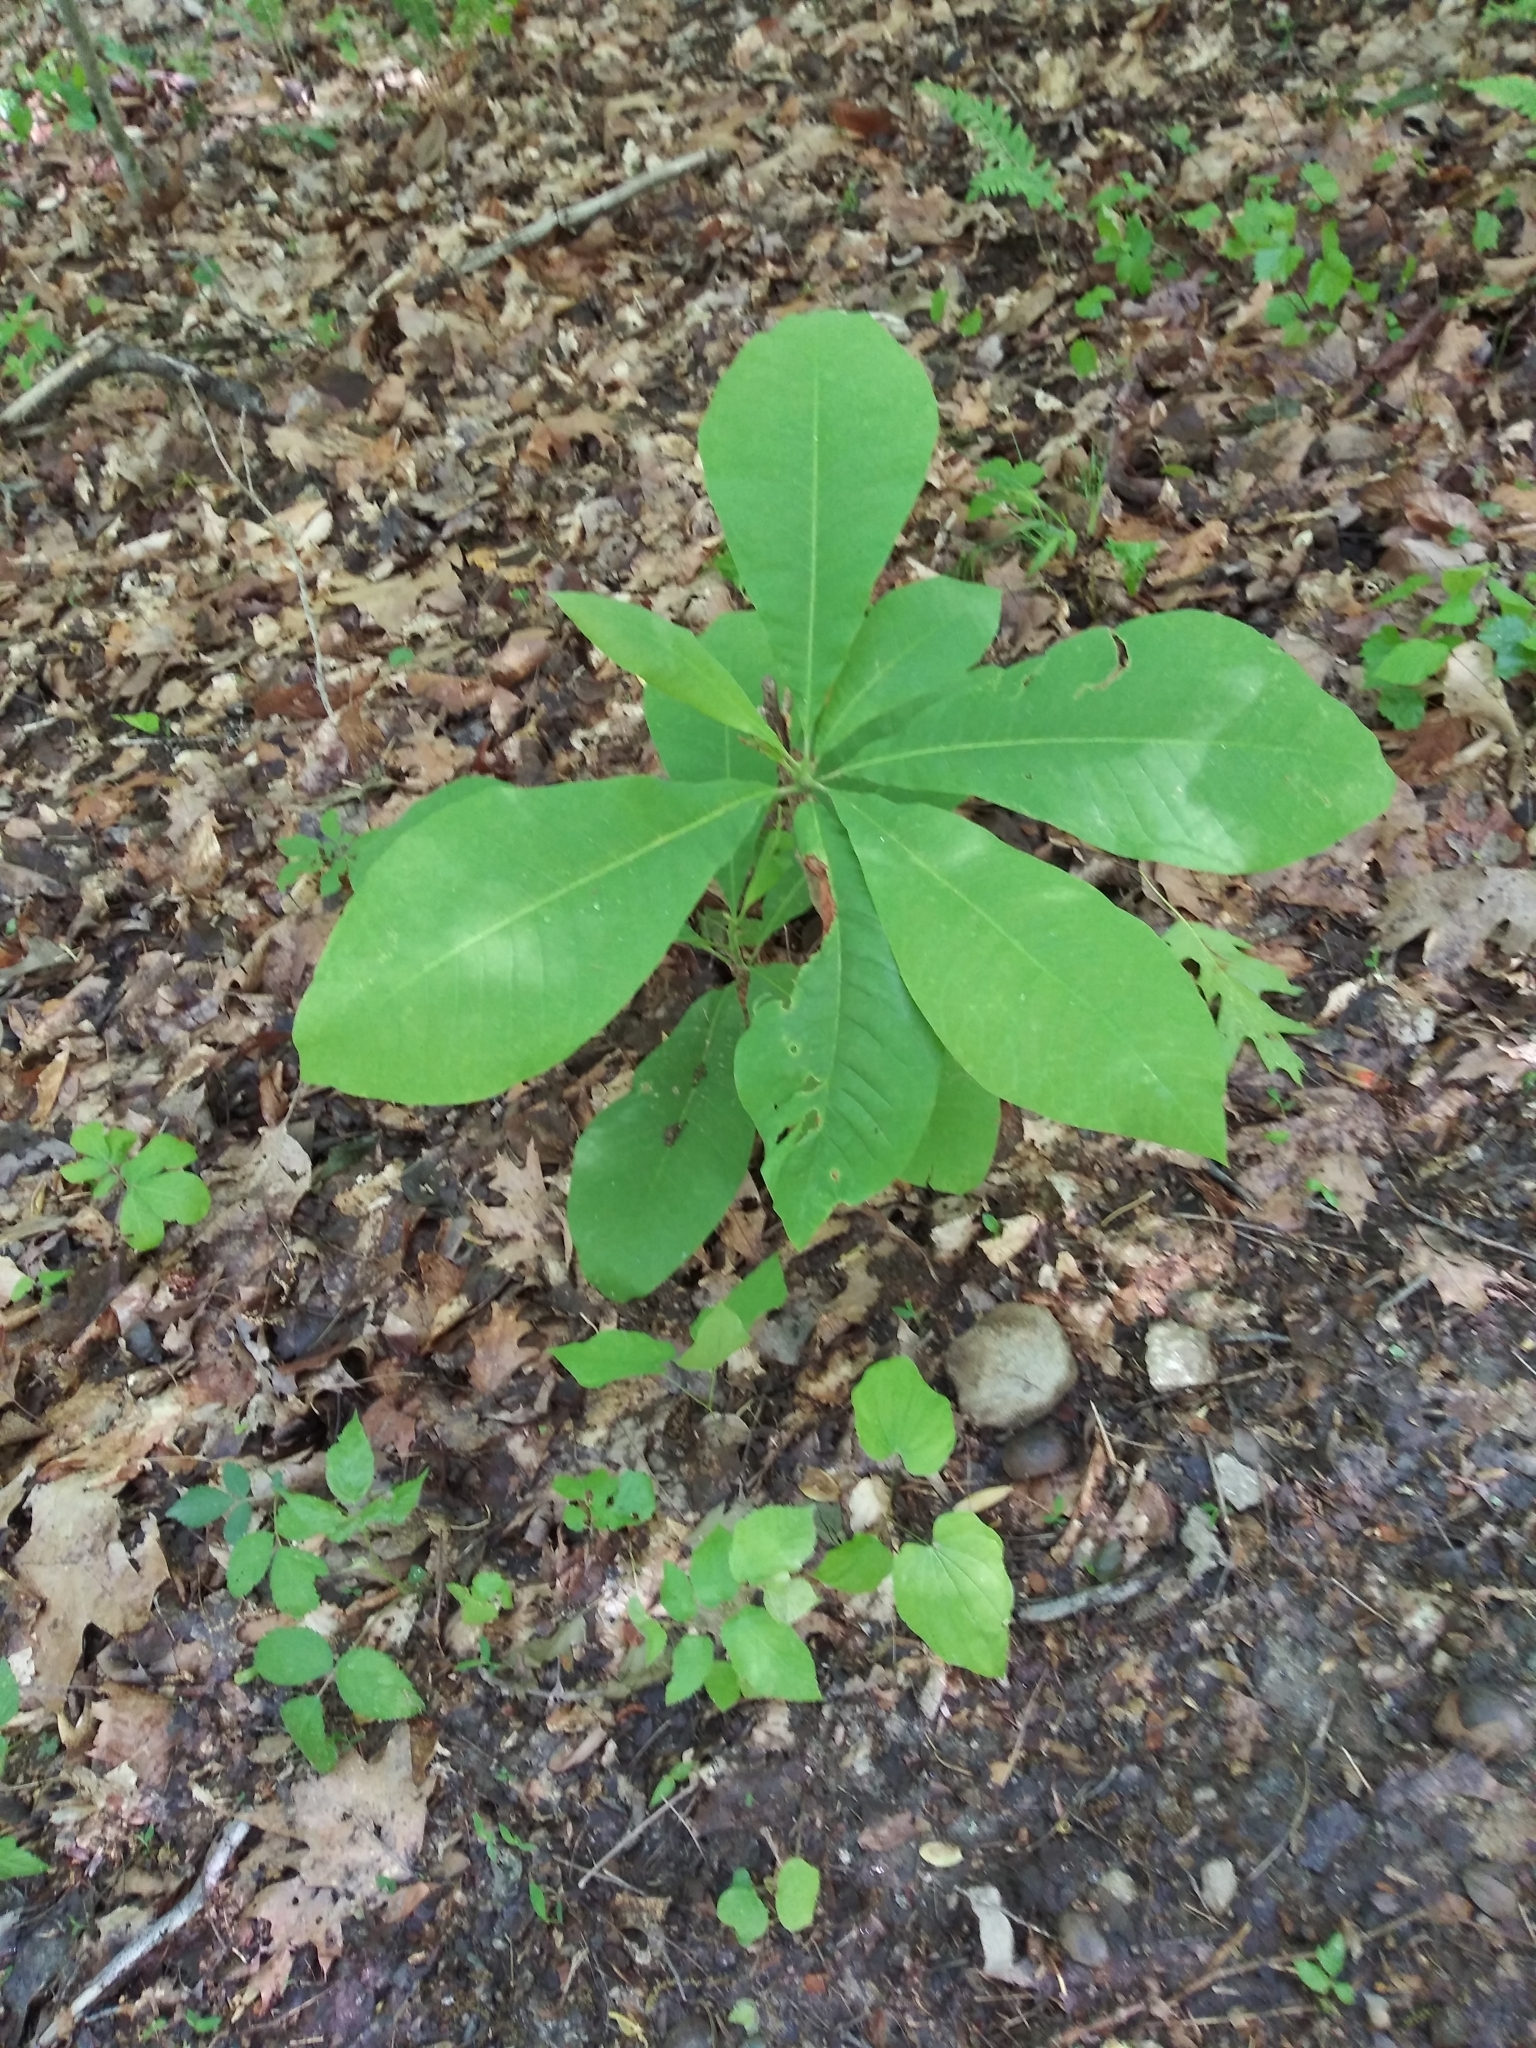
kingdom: Plantae
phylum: Tracheophyta
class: Magnoliopsida
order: Magnoliales
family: Magnoliaceae
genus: Magnolia
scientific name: Magnolia tripetala
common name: Umbrella magnolia
